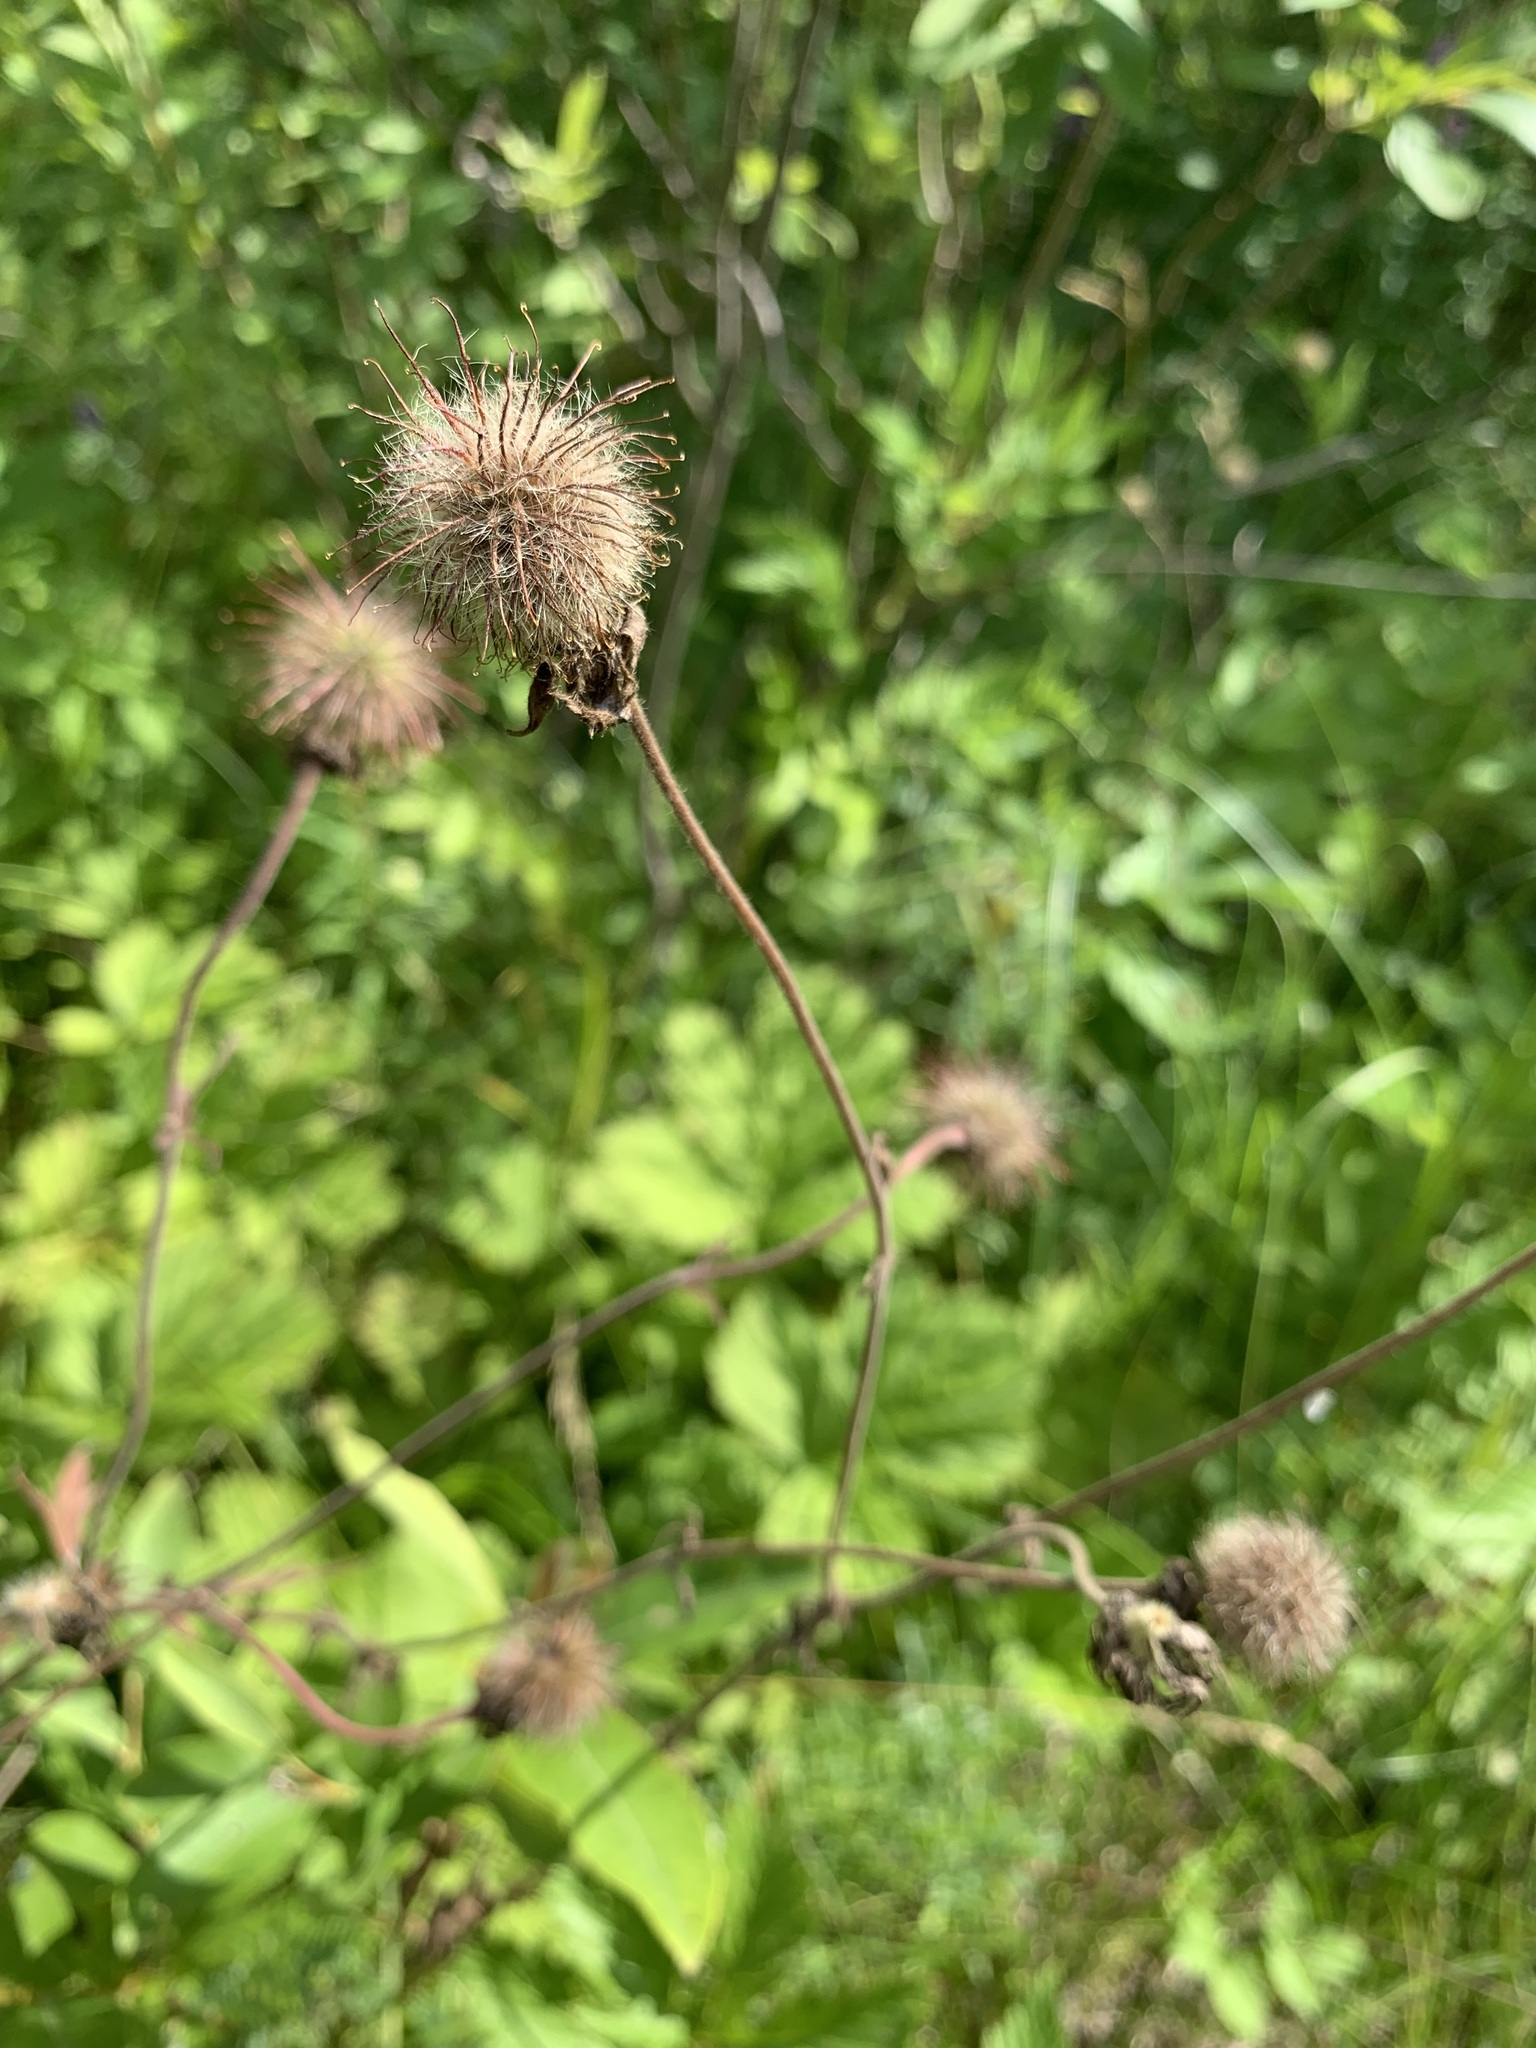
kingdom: Plantae
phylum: Tracheophyta
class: Magnoliopsida
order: Rosales
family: Rosaceae
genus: Geum
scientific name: Geum rivale
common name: Water avens
